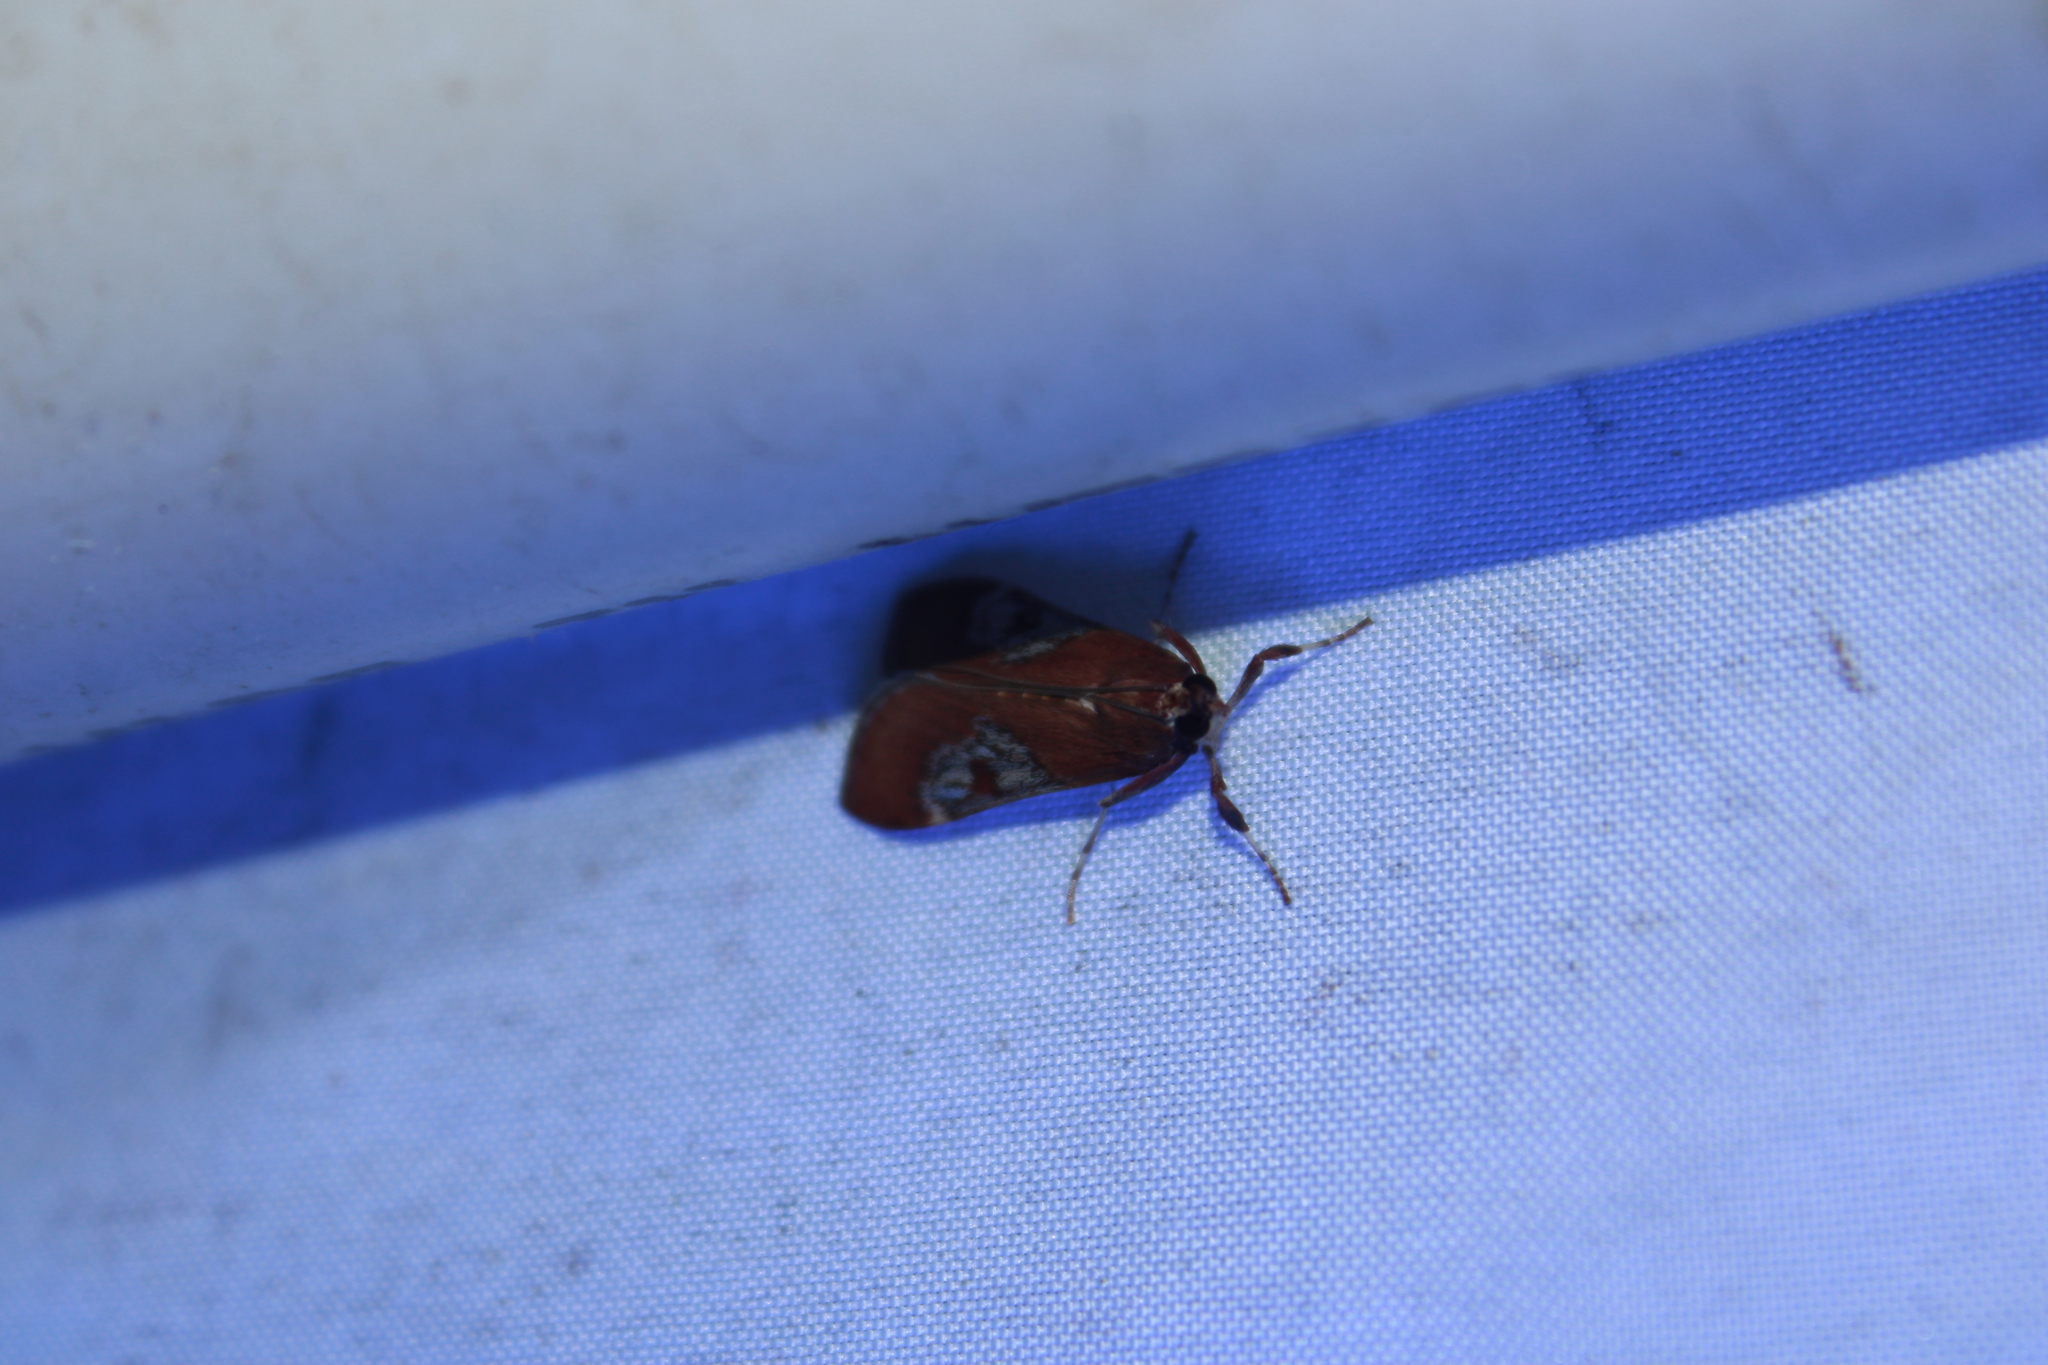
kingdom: Animalia
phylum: Arthropoda
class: Insecta
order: Lepidoptera
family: Crambidae
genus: Omiodes
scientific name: Omiodes stigmosalis
